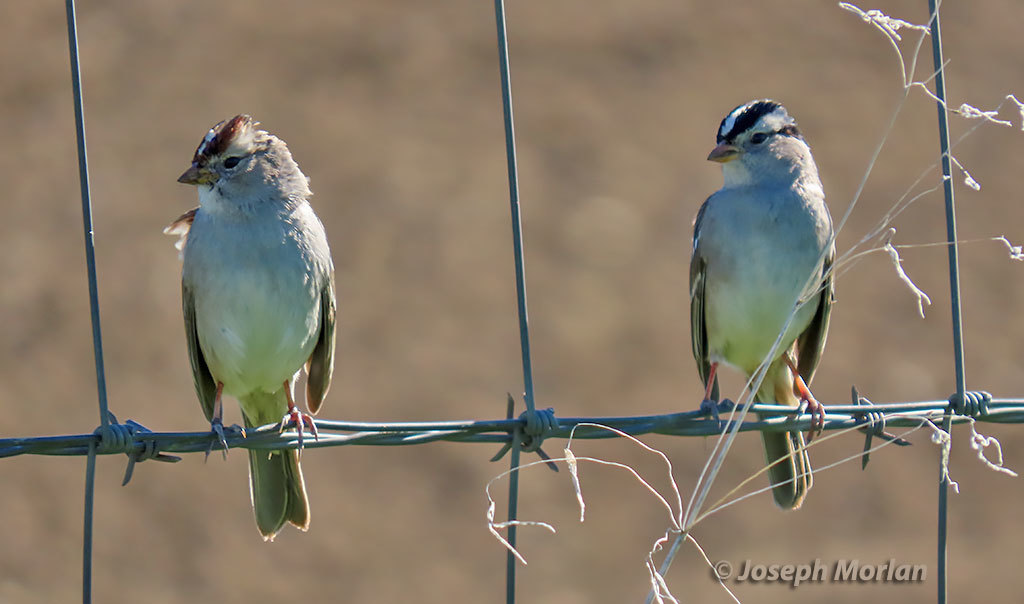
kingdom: Animalia
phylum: Chordata
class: Aves
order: Passeriformes
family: Passerellidae
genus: Zonotrichia
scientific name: Zonotrichia leucophrys
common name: White-crowned sparrow
